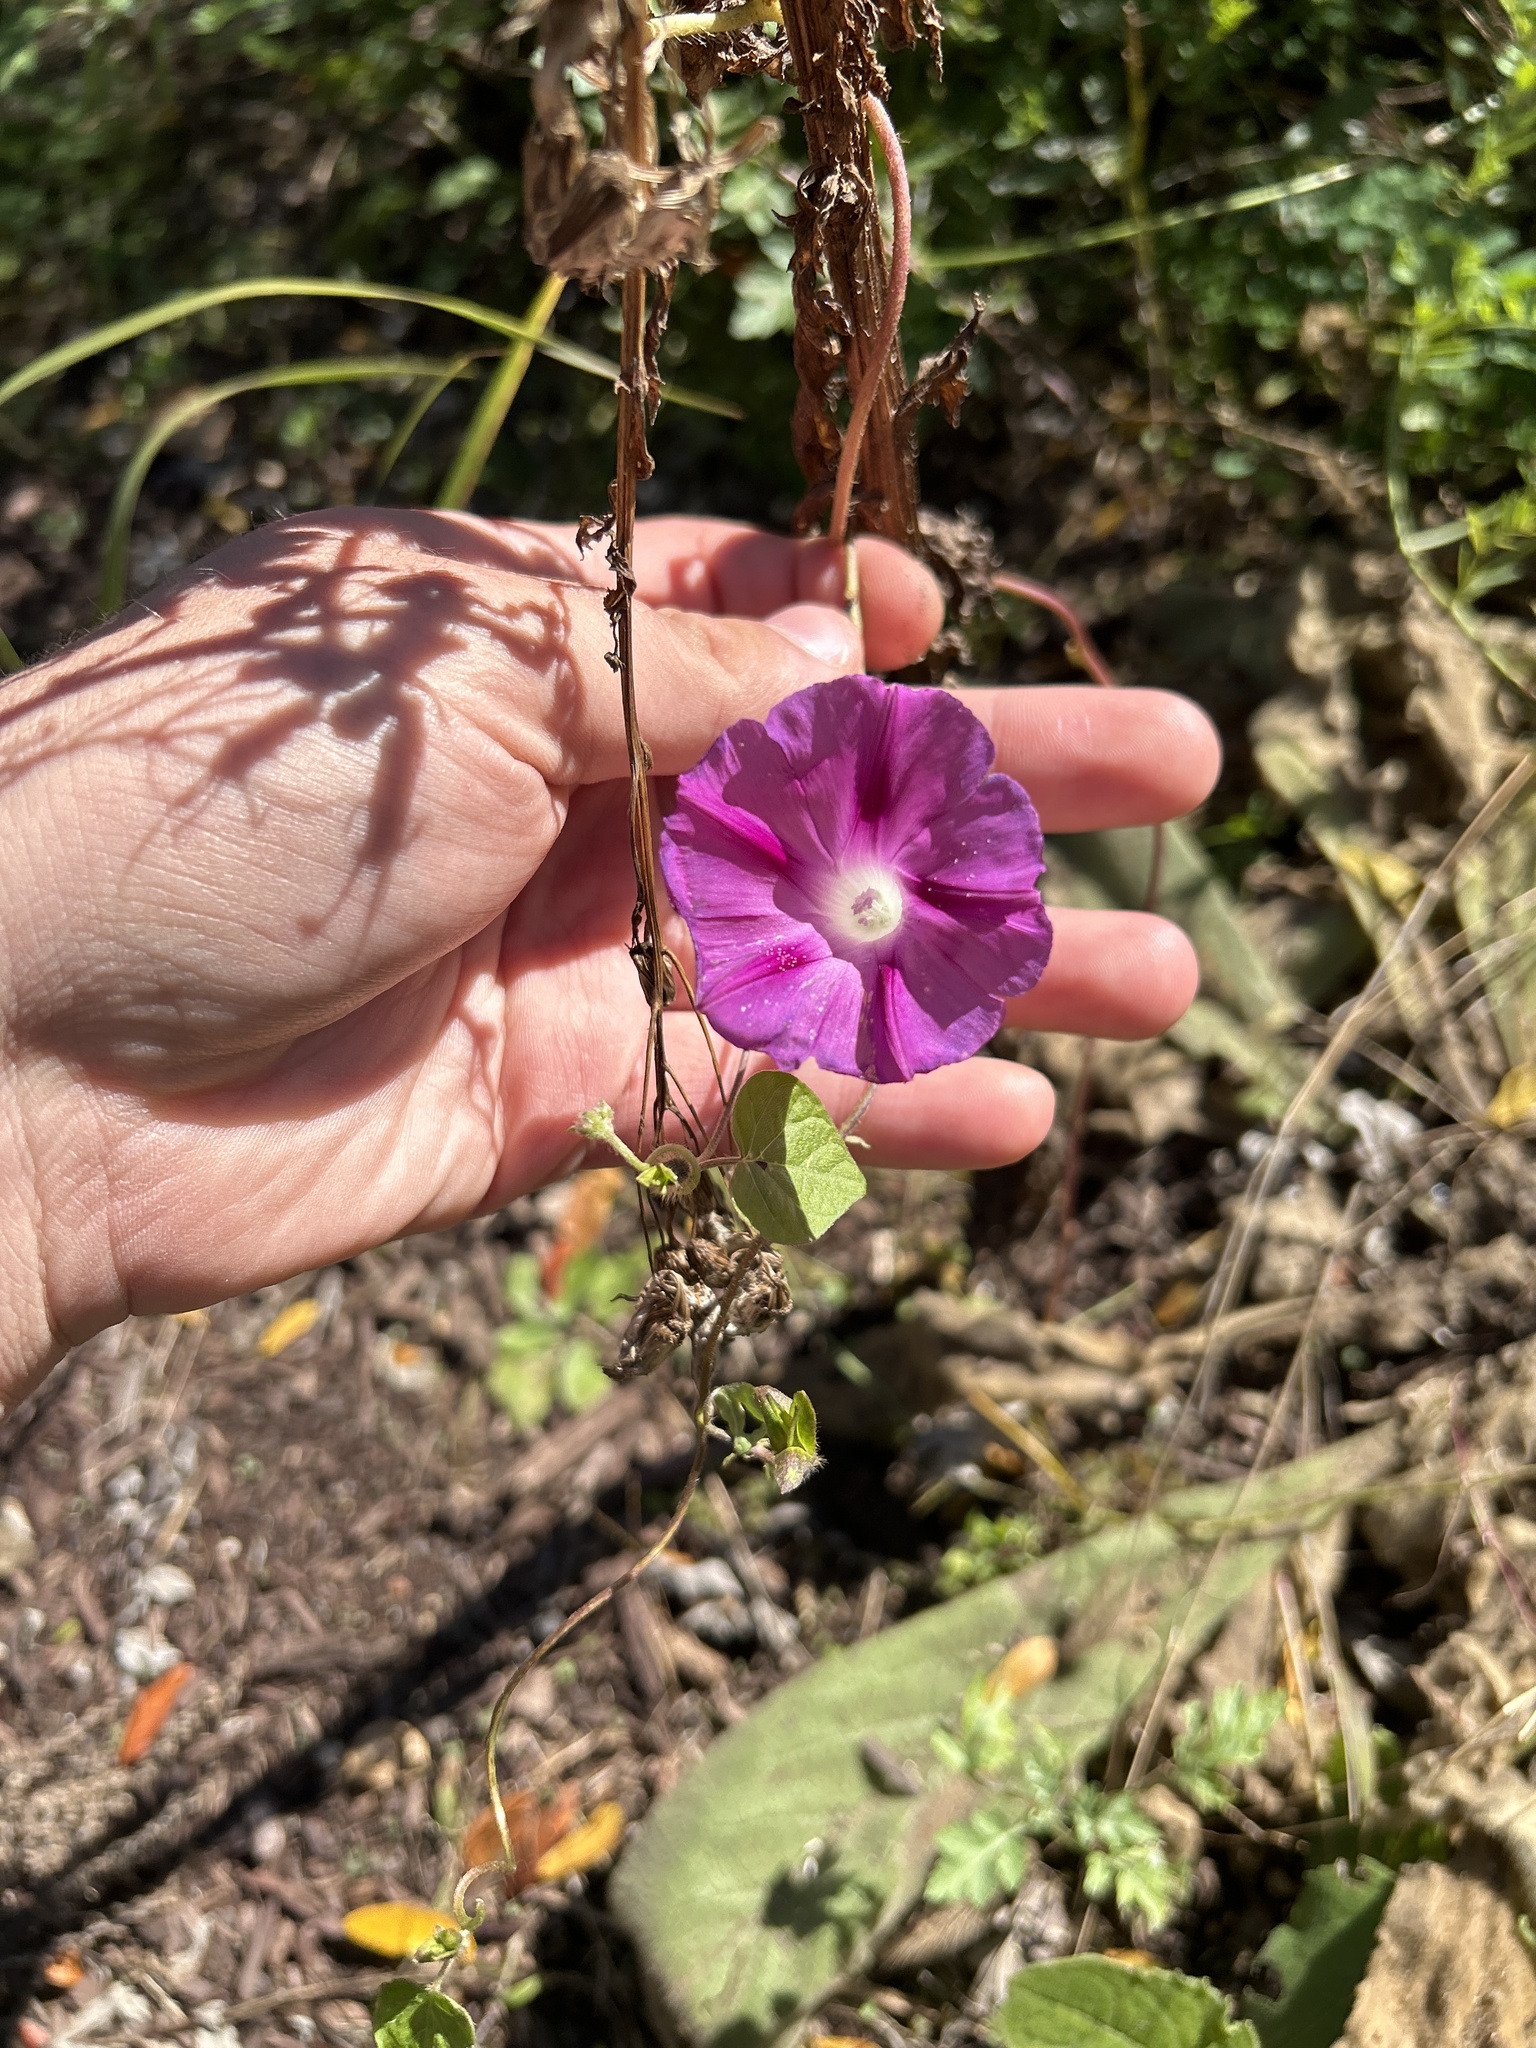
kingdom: Plantae
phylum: Tracheophyta
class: Magnoliopsida
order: Solanales
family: Convolvulaceae
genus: Ipomoea
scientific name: Ipomoea purpurea
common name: Common morning-glory
